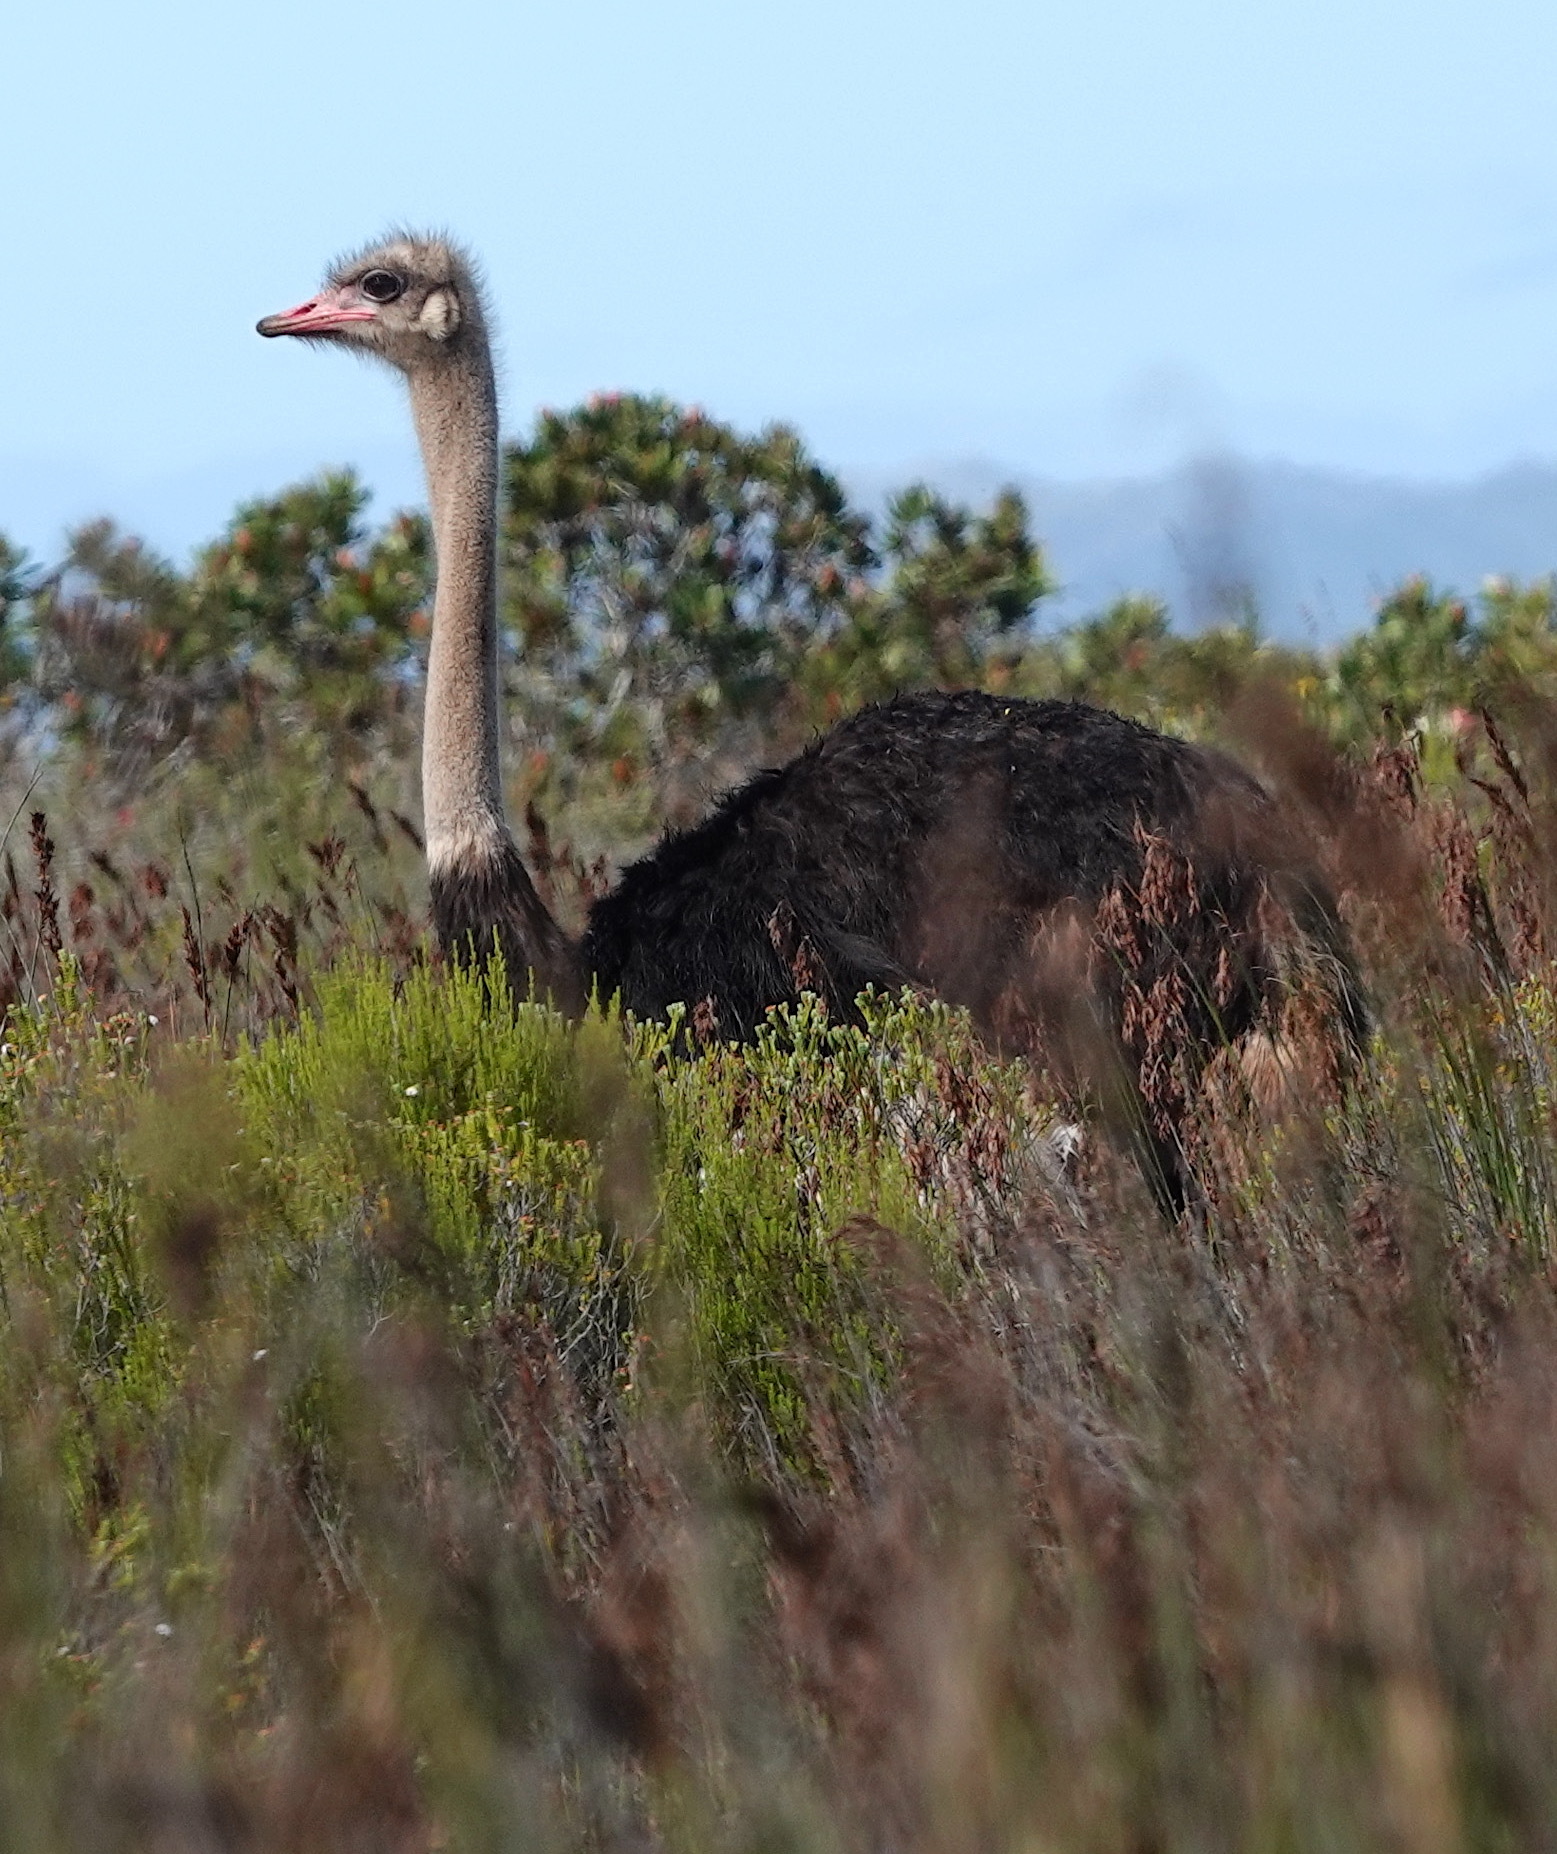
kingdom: Animalia
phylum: Chordata
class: Aves
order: Struthioniformes
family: Struthionidae
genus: Struthio
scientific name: Struthio camelus
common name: Common ostrich
